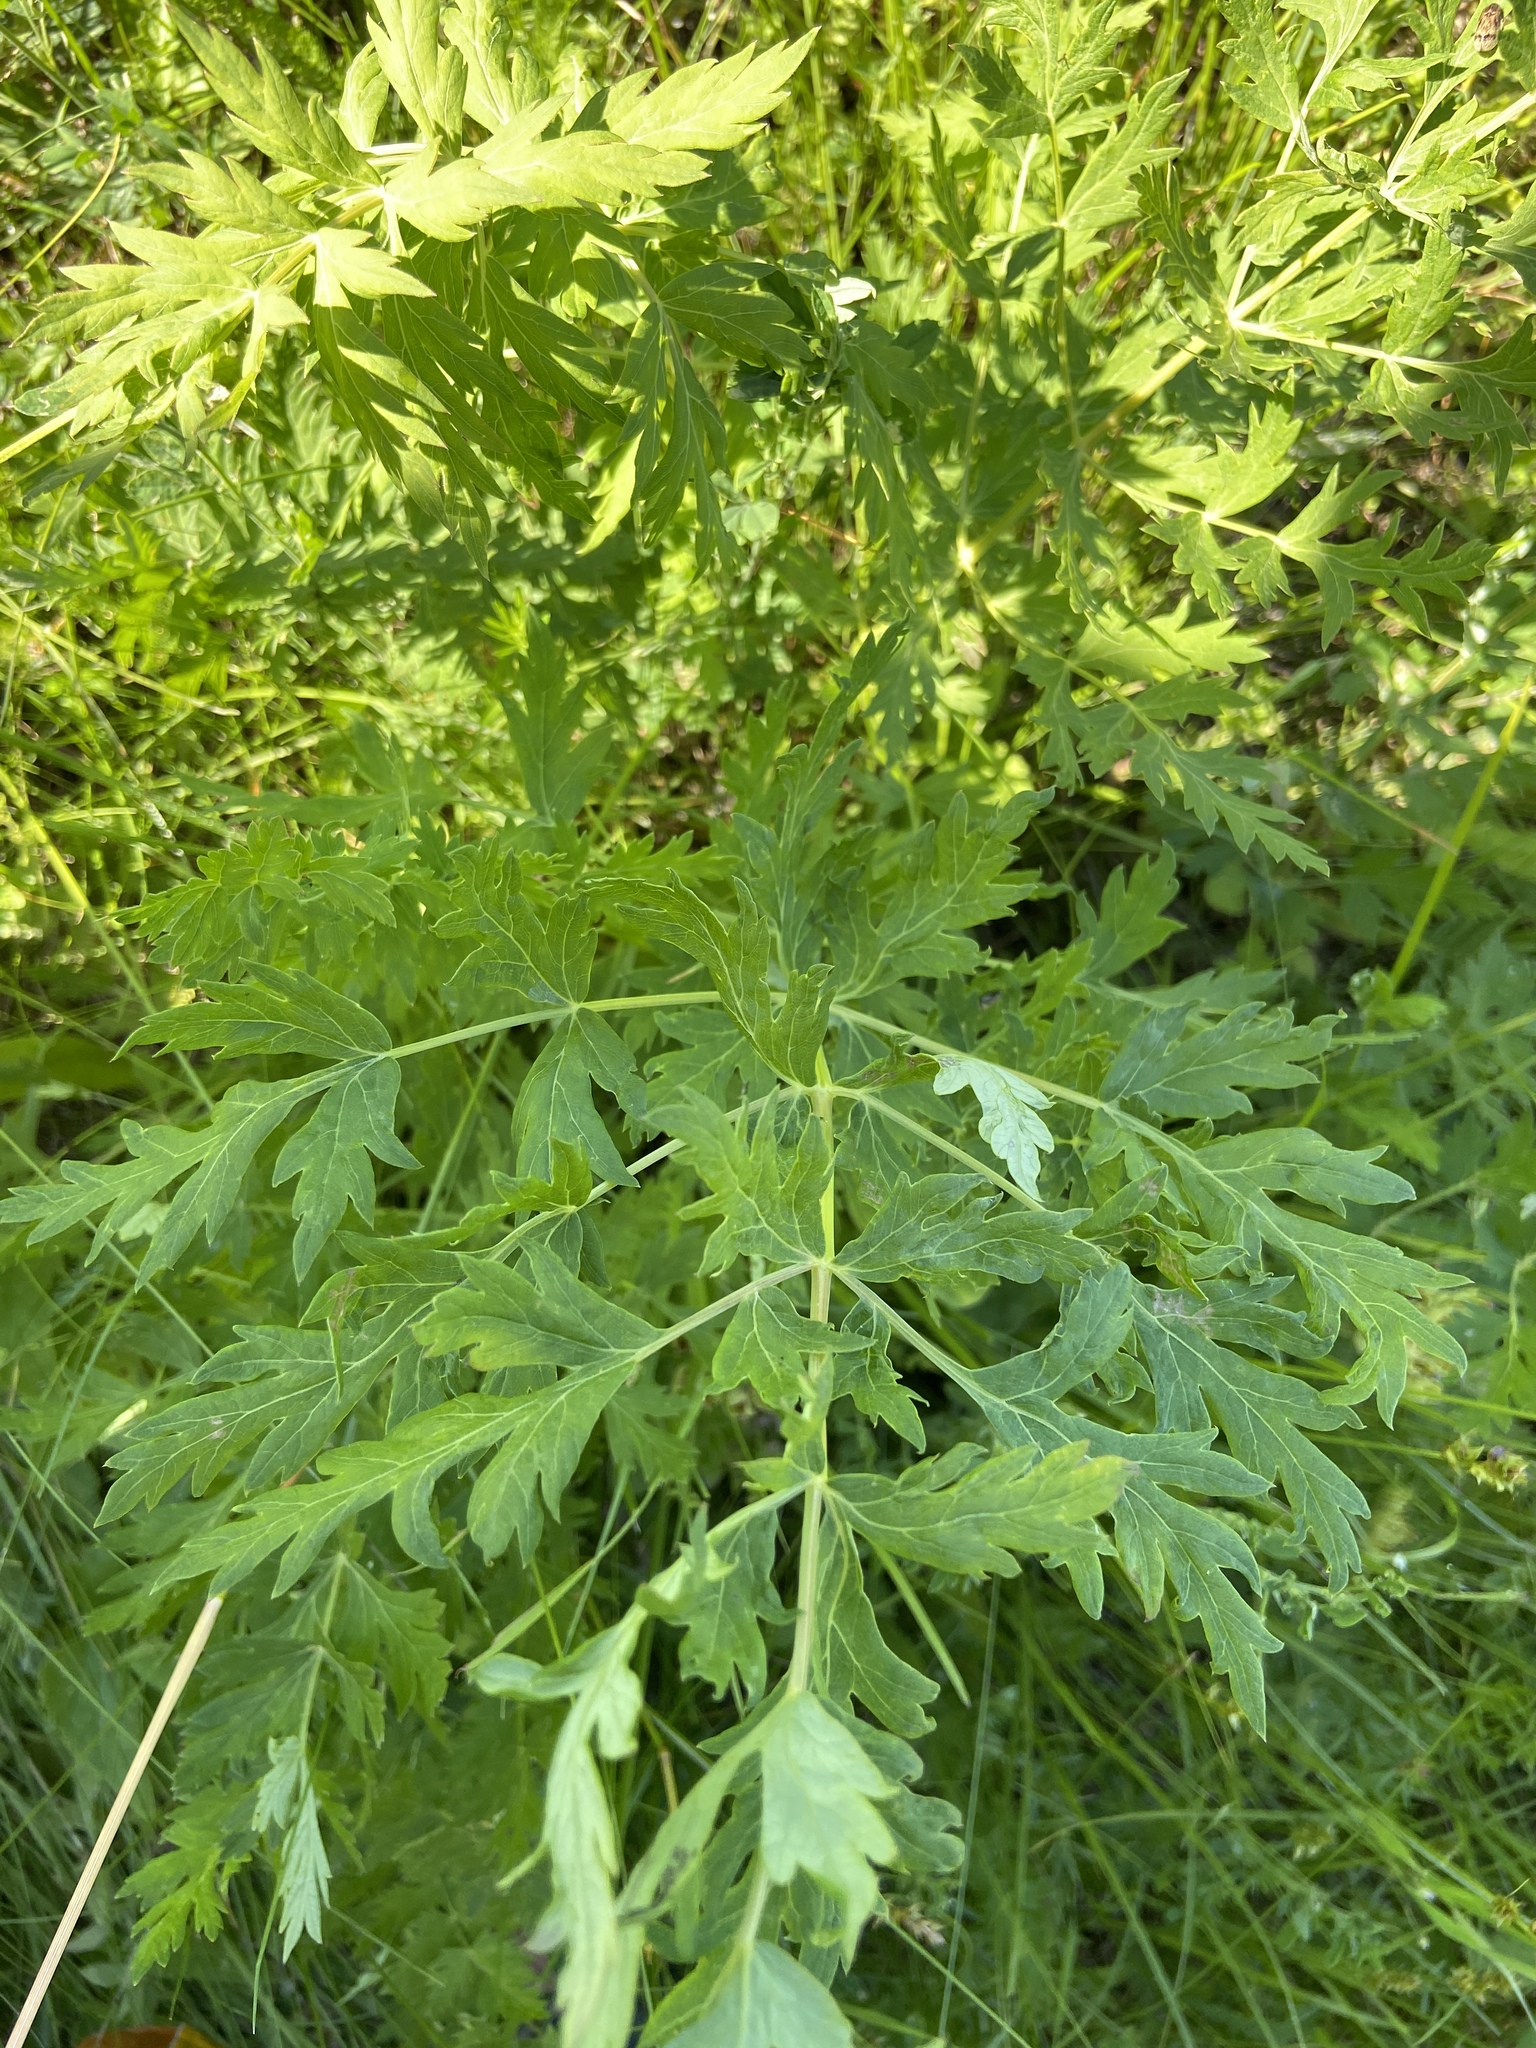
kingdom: Plantae
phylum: Tracheophyta
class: Magnoliopsida
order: Apiales
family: Apiaceae
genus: Seseli
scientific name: Seseli libanotis
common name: Mooncarrot
